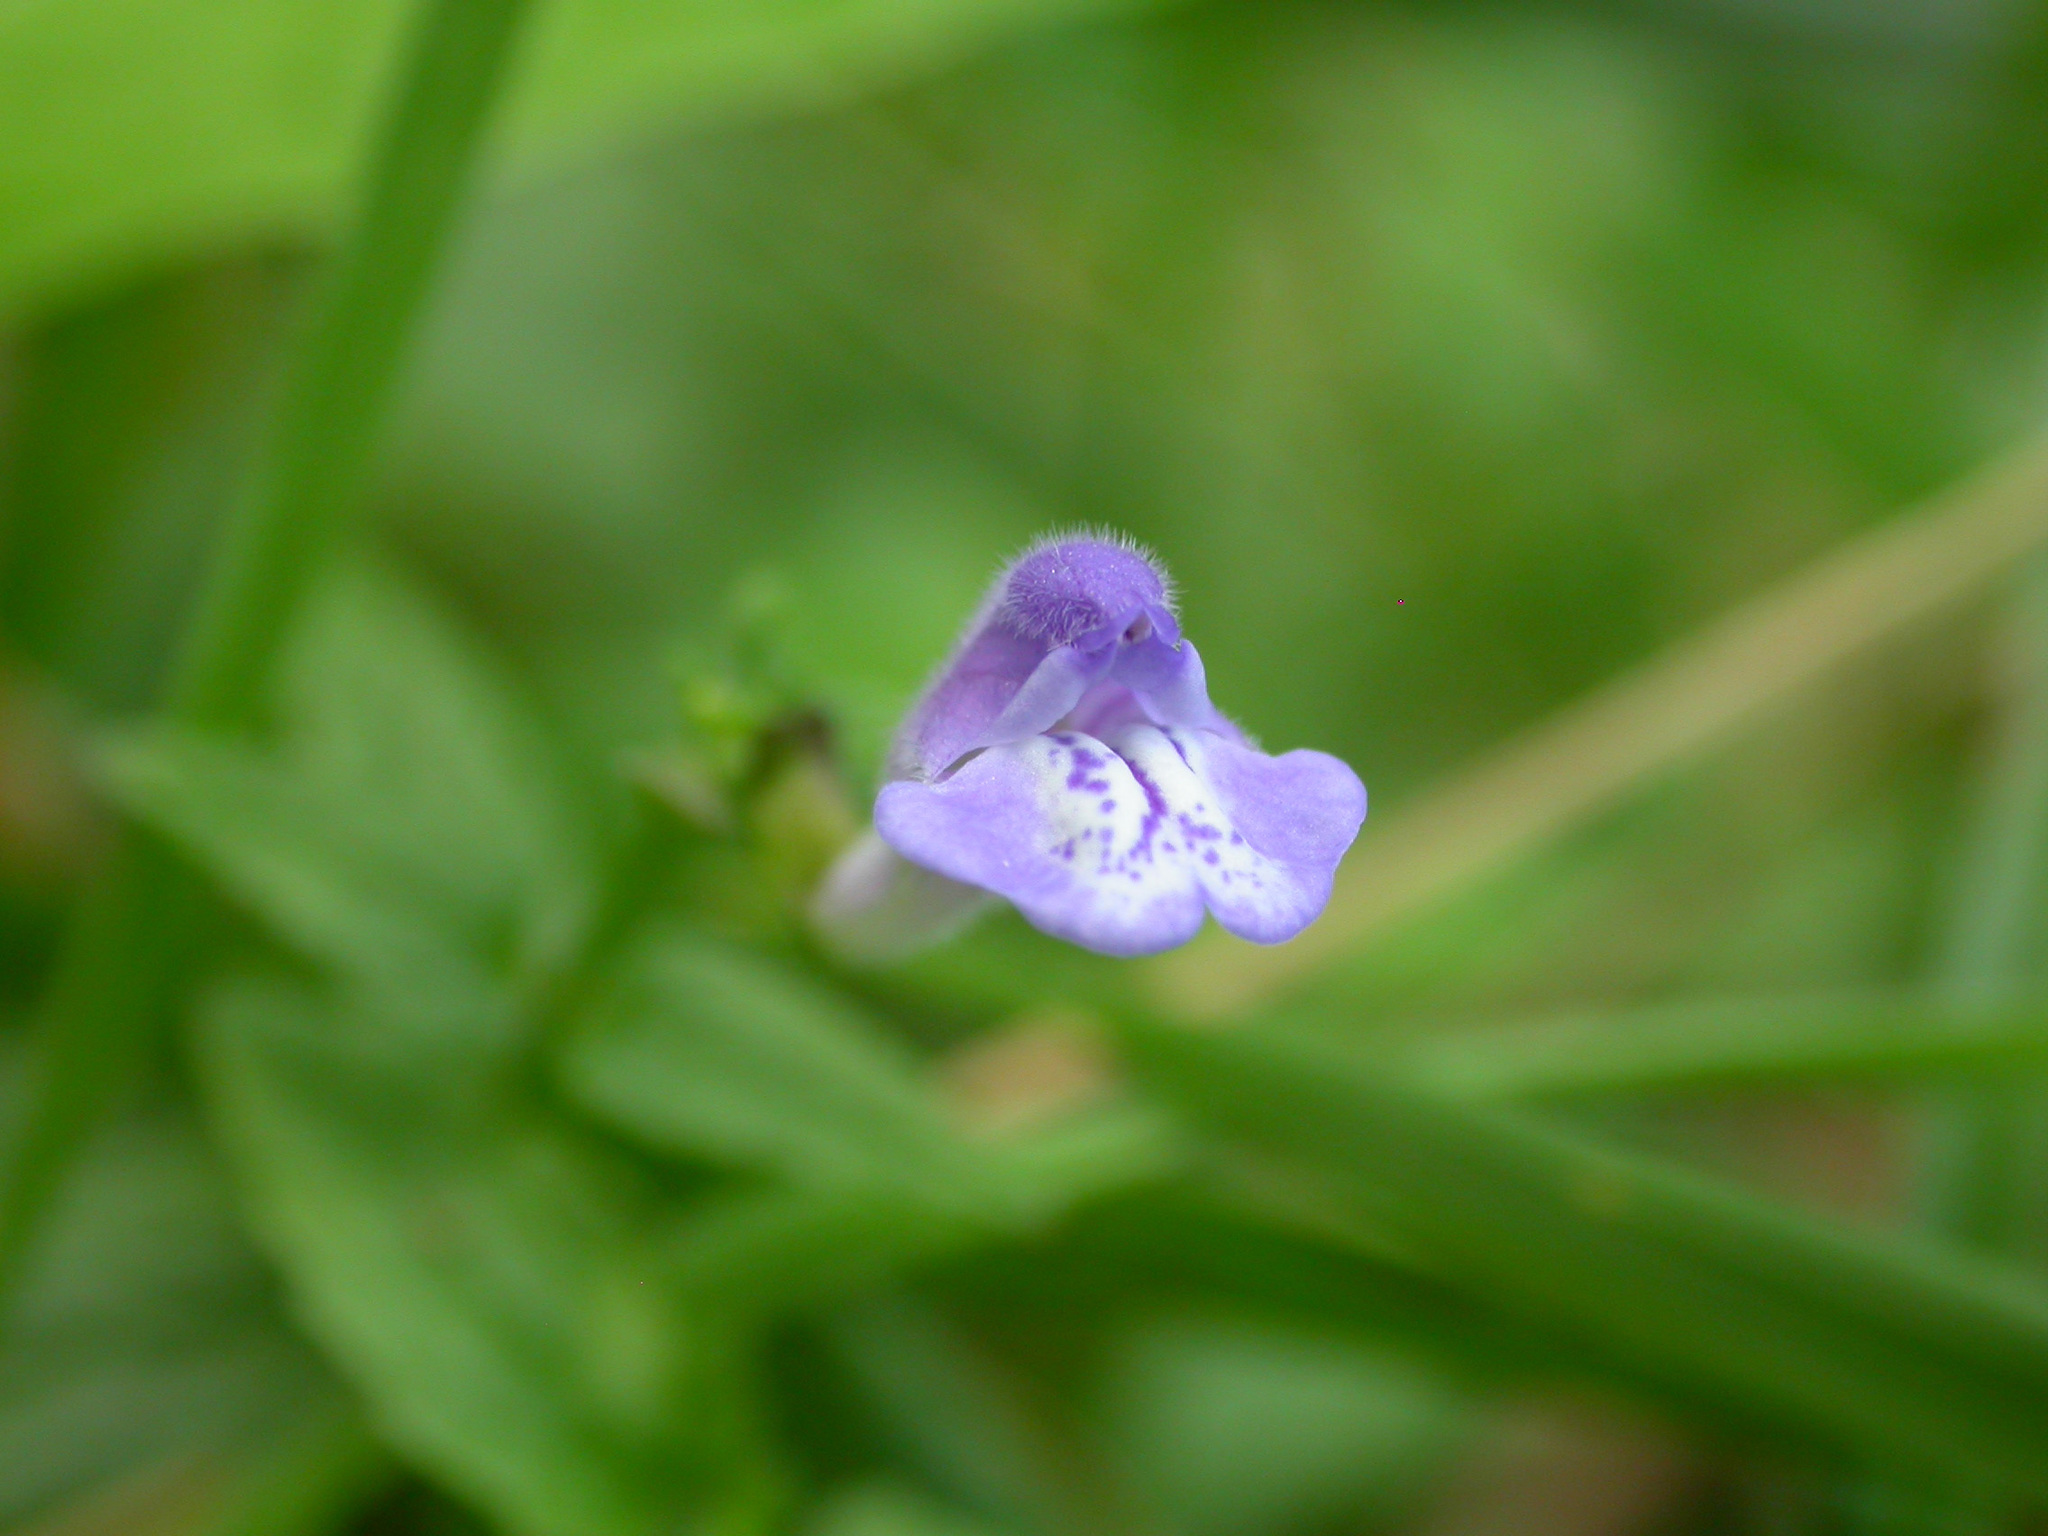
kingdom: Plantae
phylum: Tracheophyta
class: Magnoliopsida
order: Lamiales
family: Lamiaceae
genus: Scutellaria
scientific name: Scutellaria galericulata
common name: Skullcap
